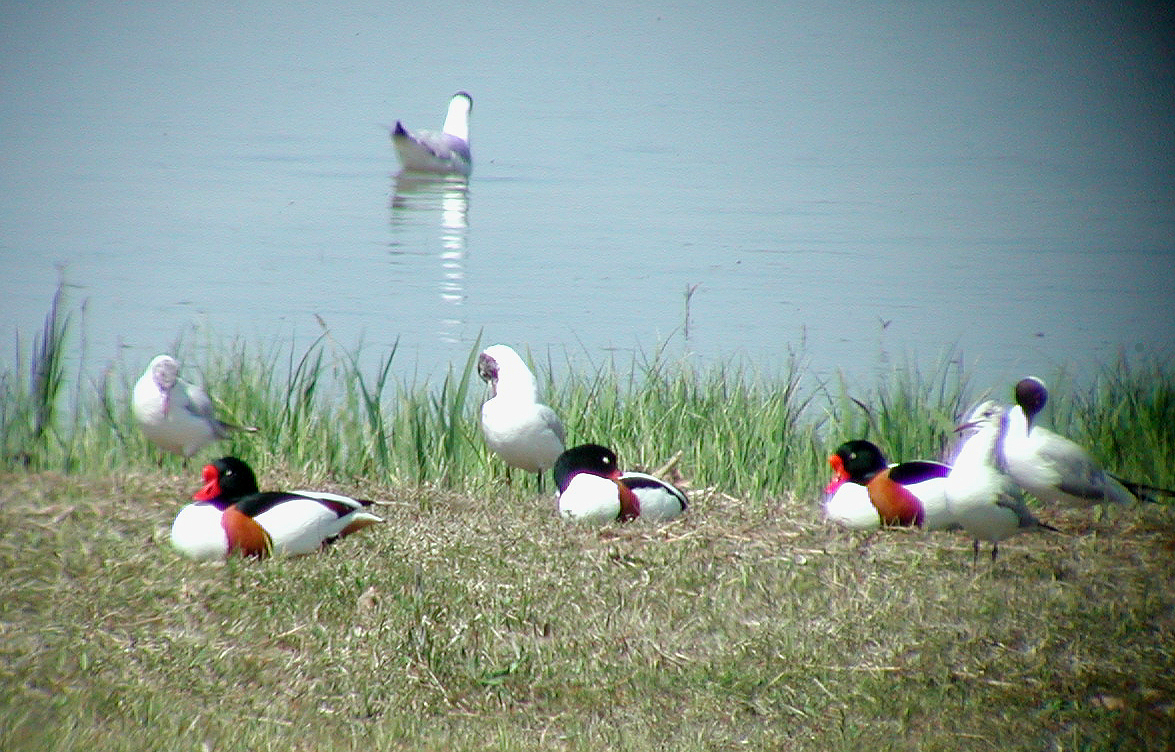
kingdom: Animalia
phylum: Chordata
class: Aves
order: Anseriformes
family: Anatidae
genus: Tadorna
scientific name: Tadorna tadorna
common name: Common shelduck
